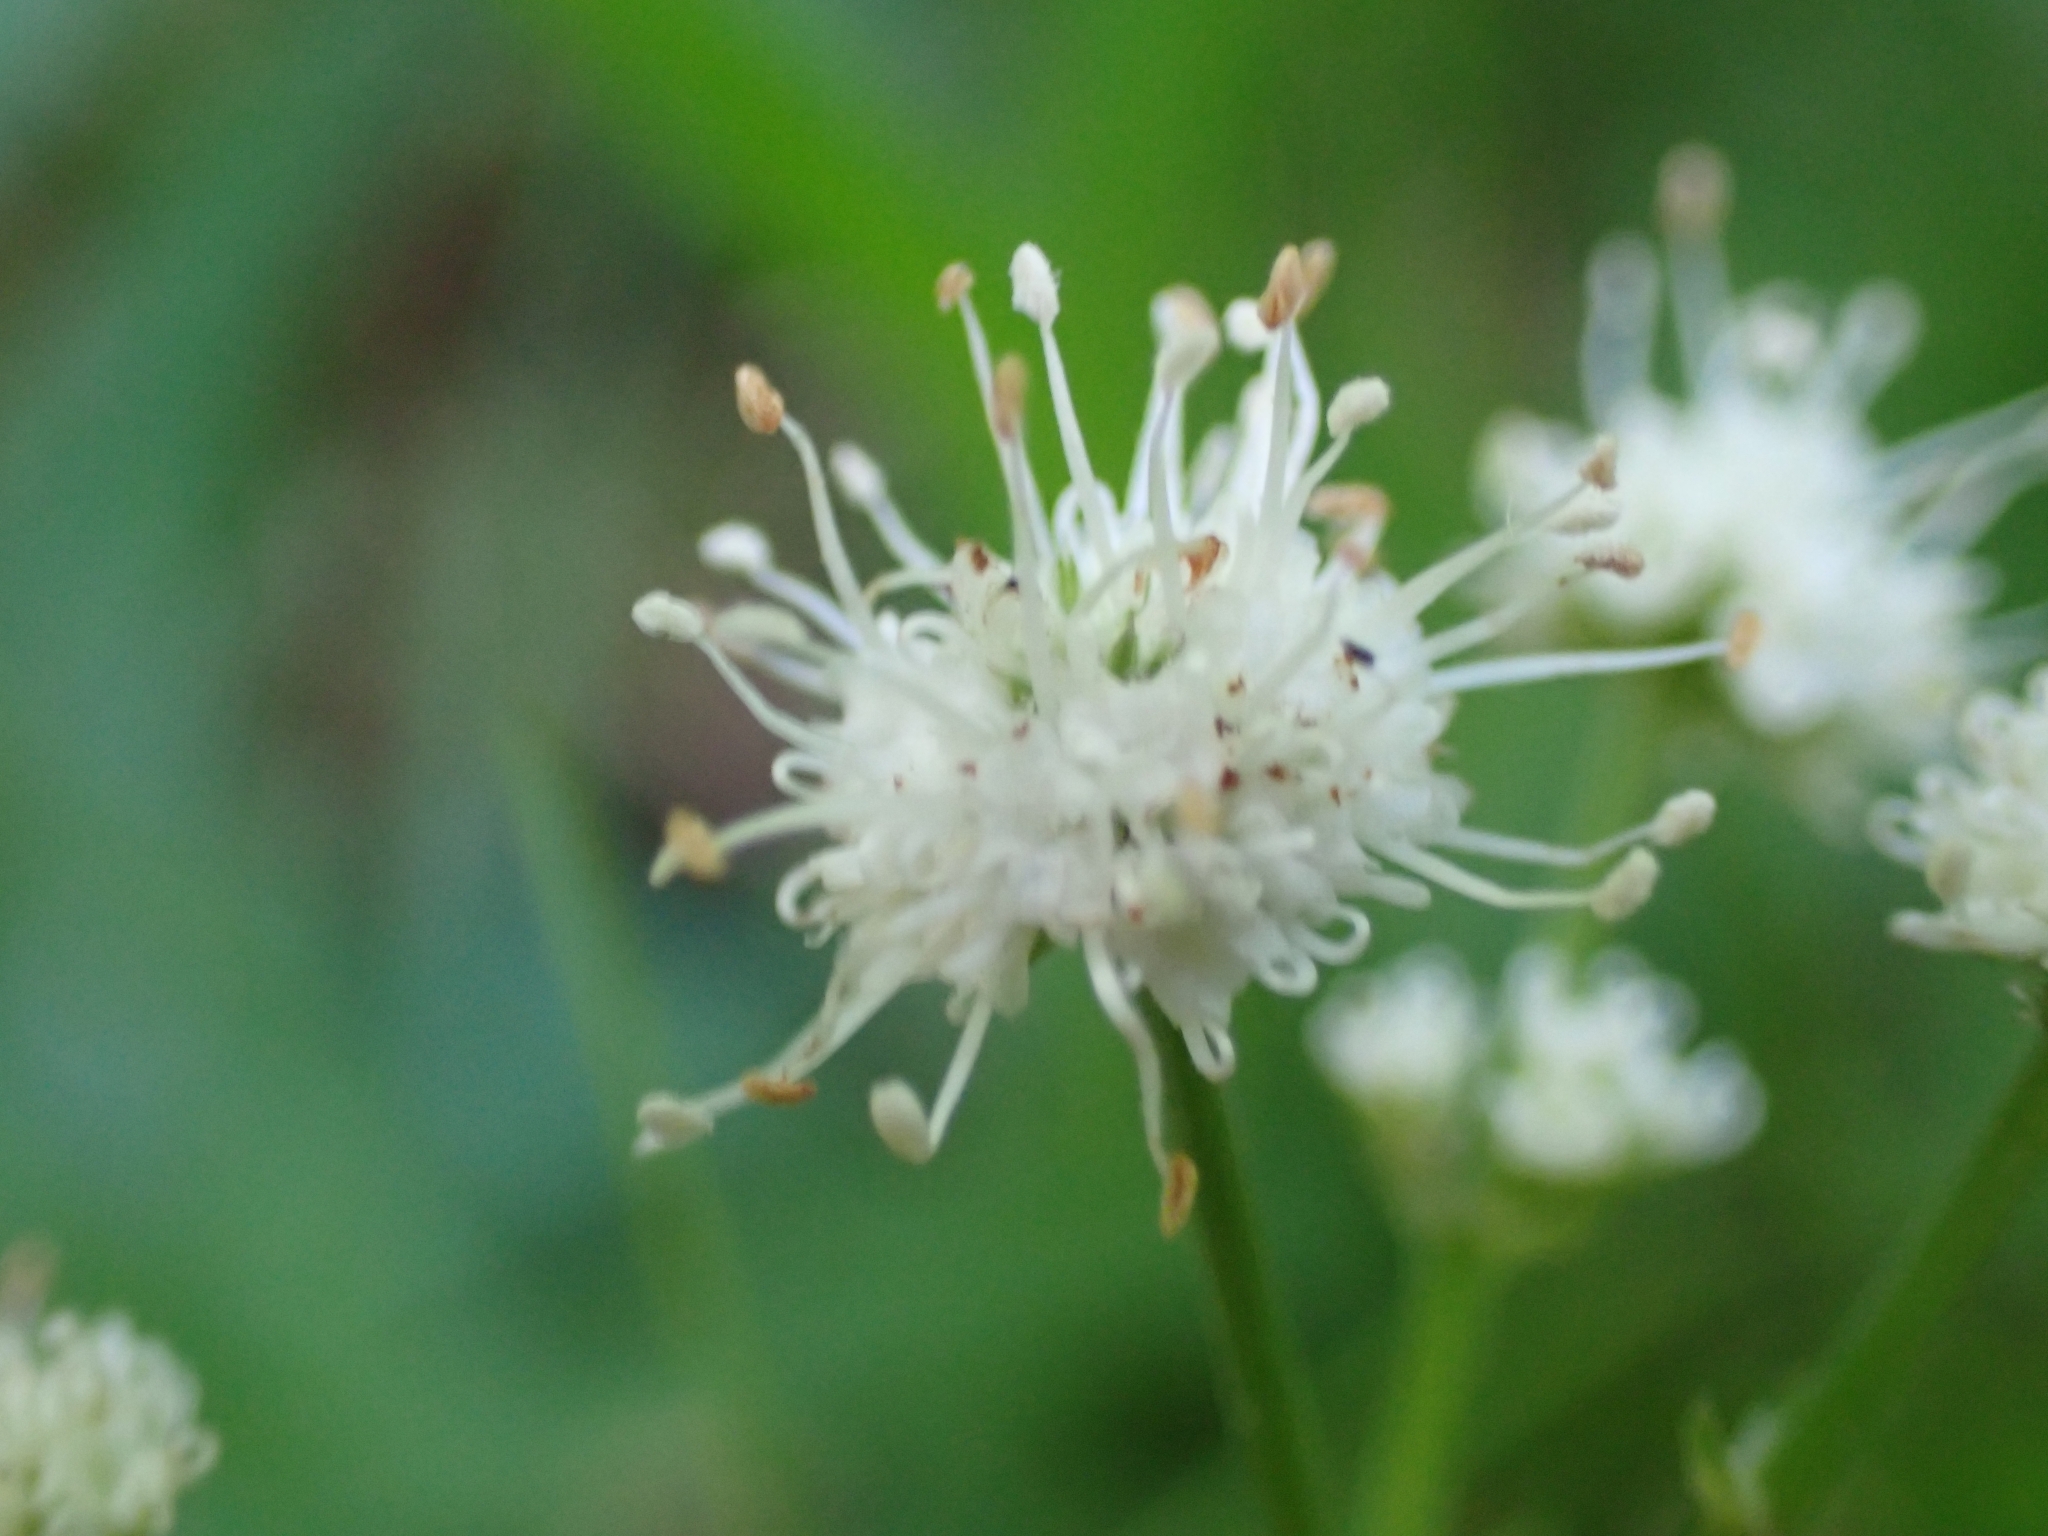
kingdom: Plantae
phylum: Tracheophyta
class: Magnoliopsida
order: Apiales
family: Apiaceae
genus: Sanicula
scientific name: Sanicula europaea
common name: Sanicle
